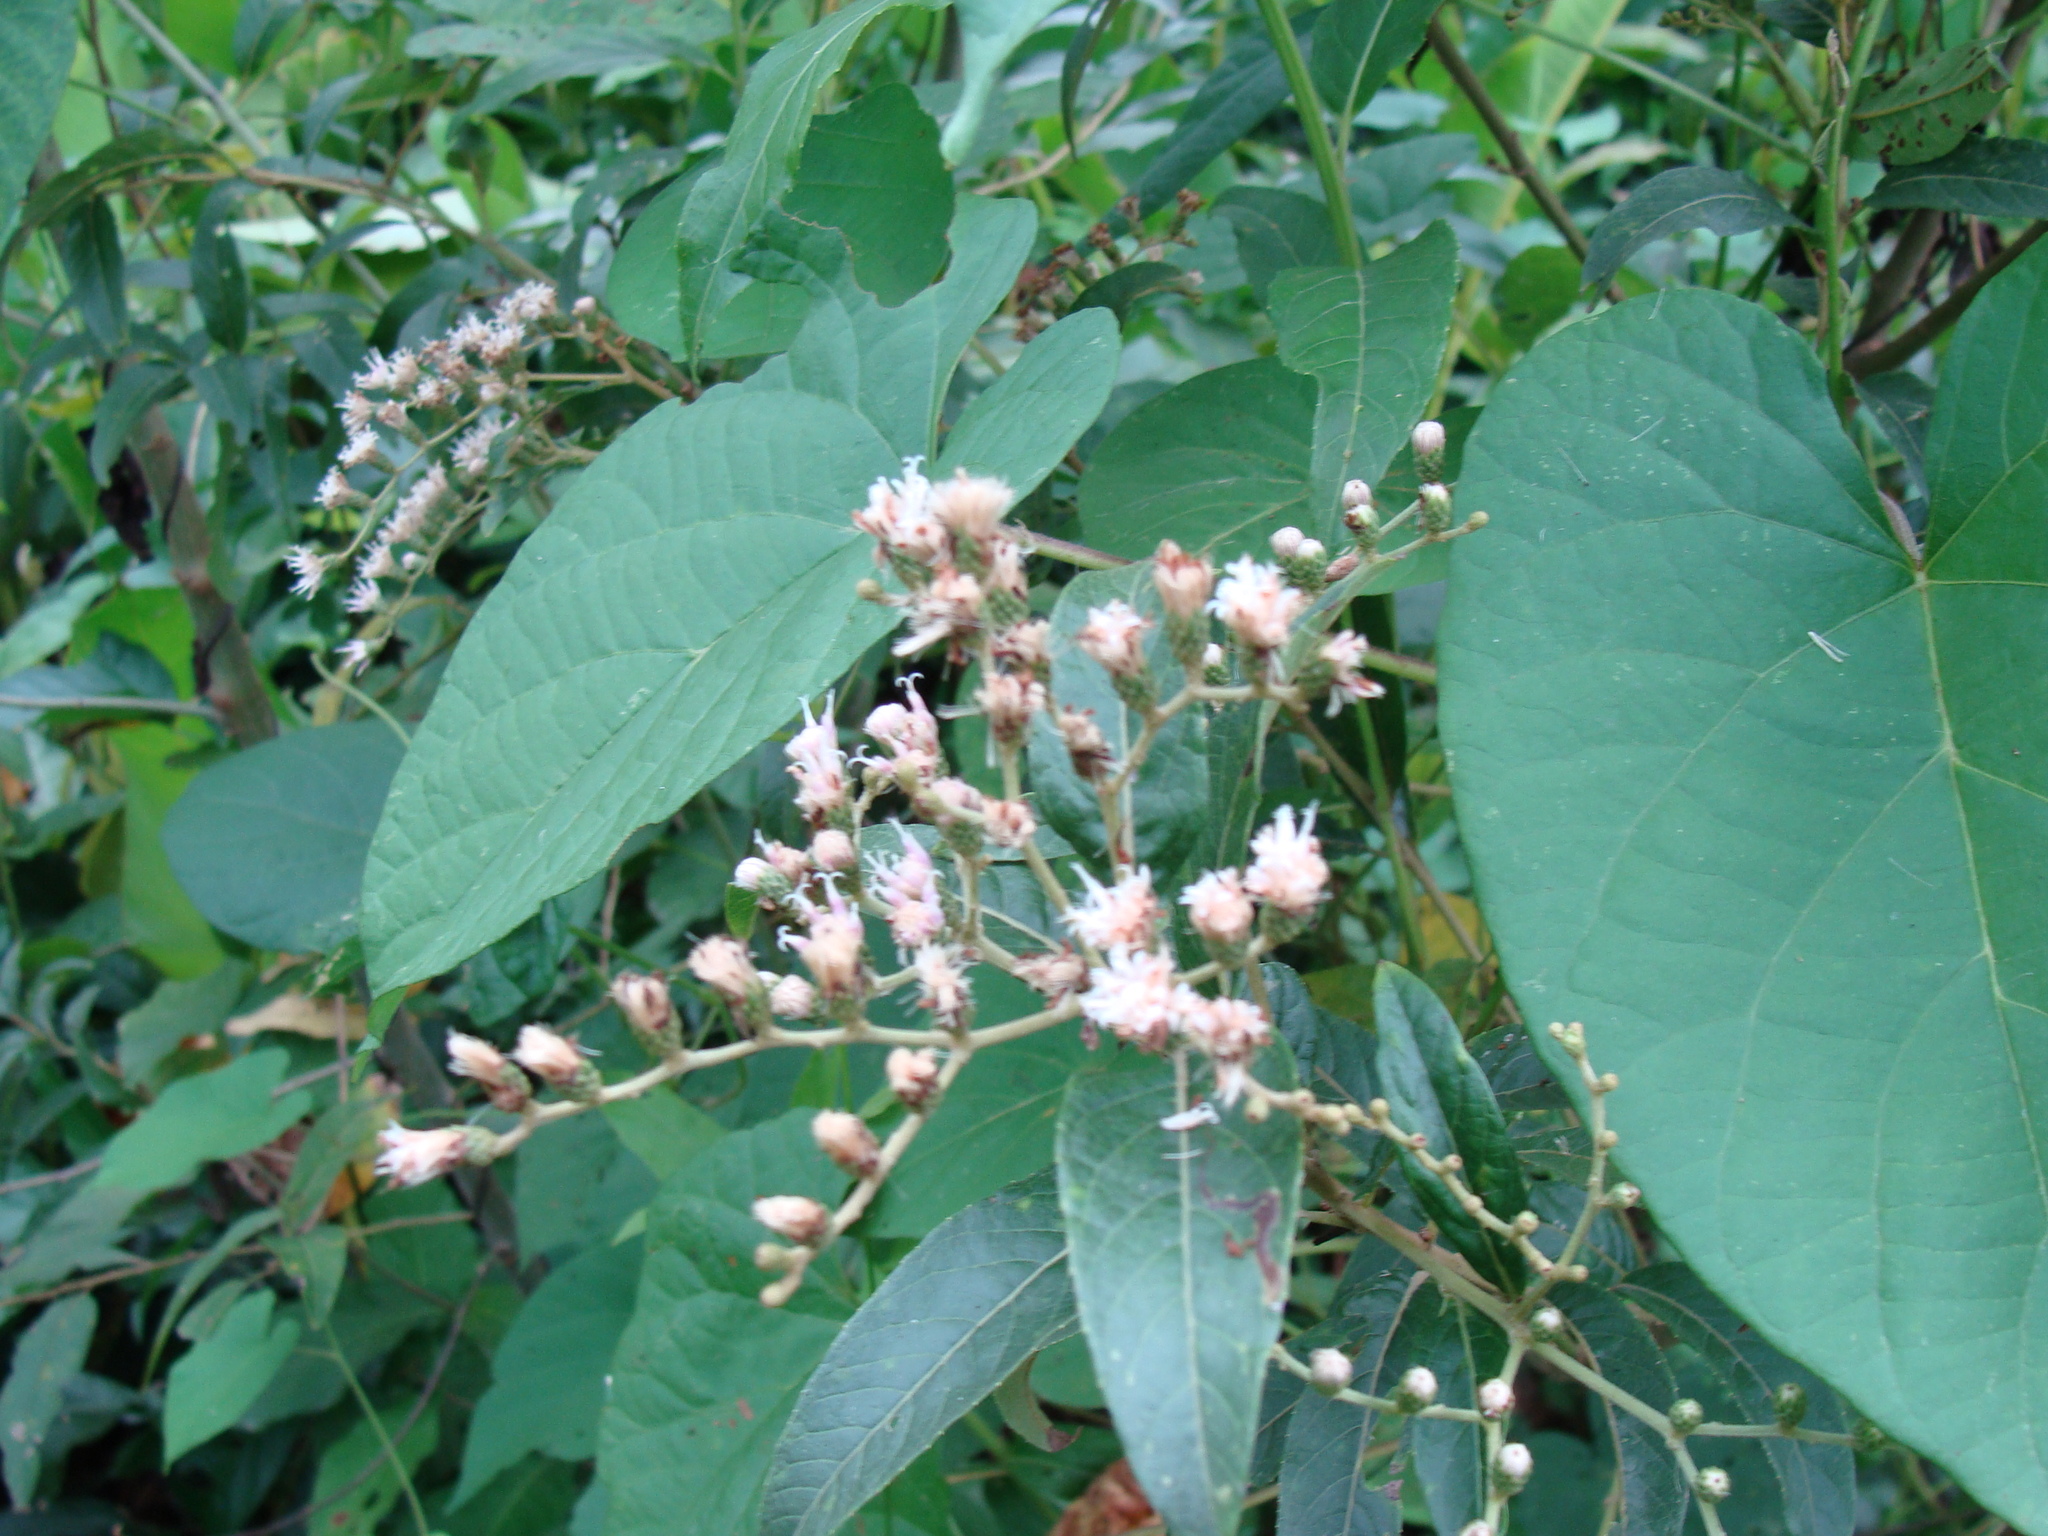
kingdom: Plantae
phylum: Tracheophyta
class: Magnoliopsida
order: Asterales
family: Asteraceae
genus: Lepidaploa
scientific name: Lepidaploa polypleura
